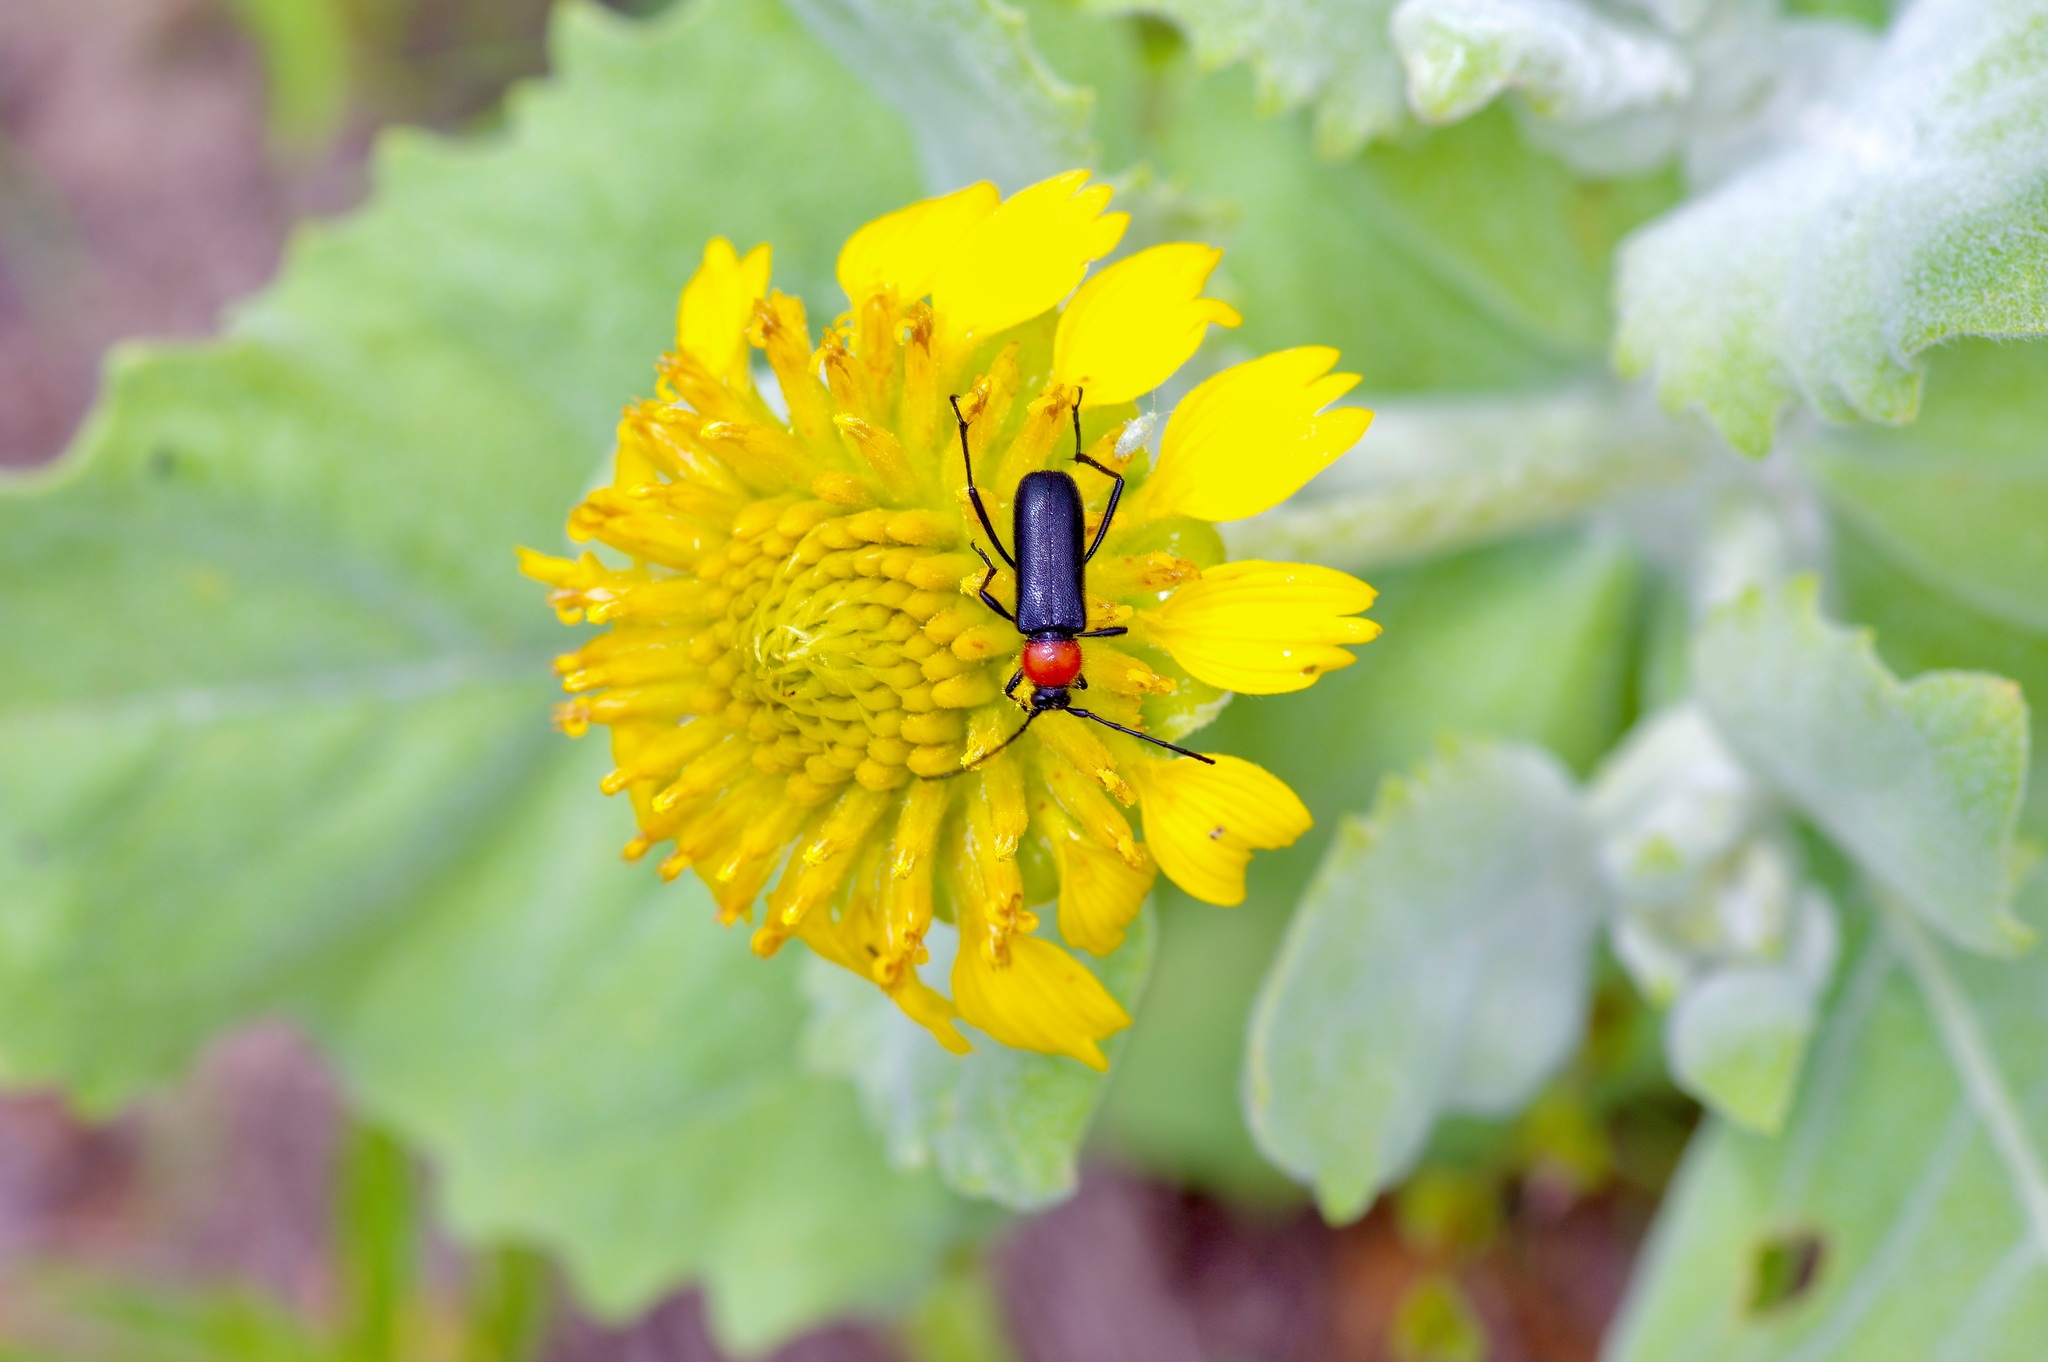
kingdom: Animalia
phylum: Arthropoda
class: Insecta
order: Coleoptera
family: Cerambycidae
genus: Batyle
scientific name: Batyle ignicollis
